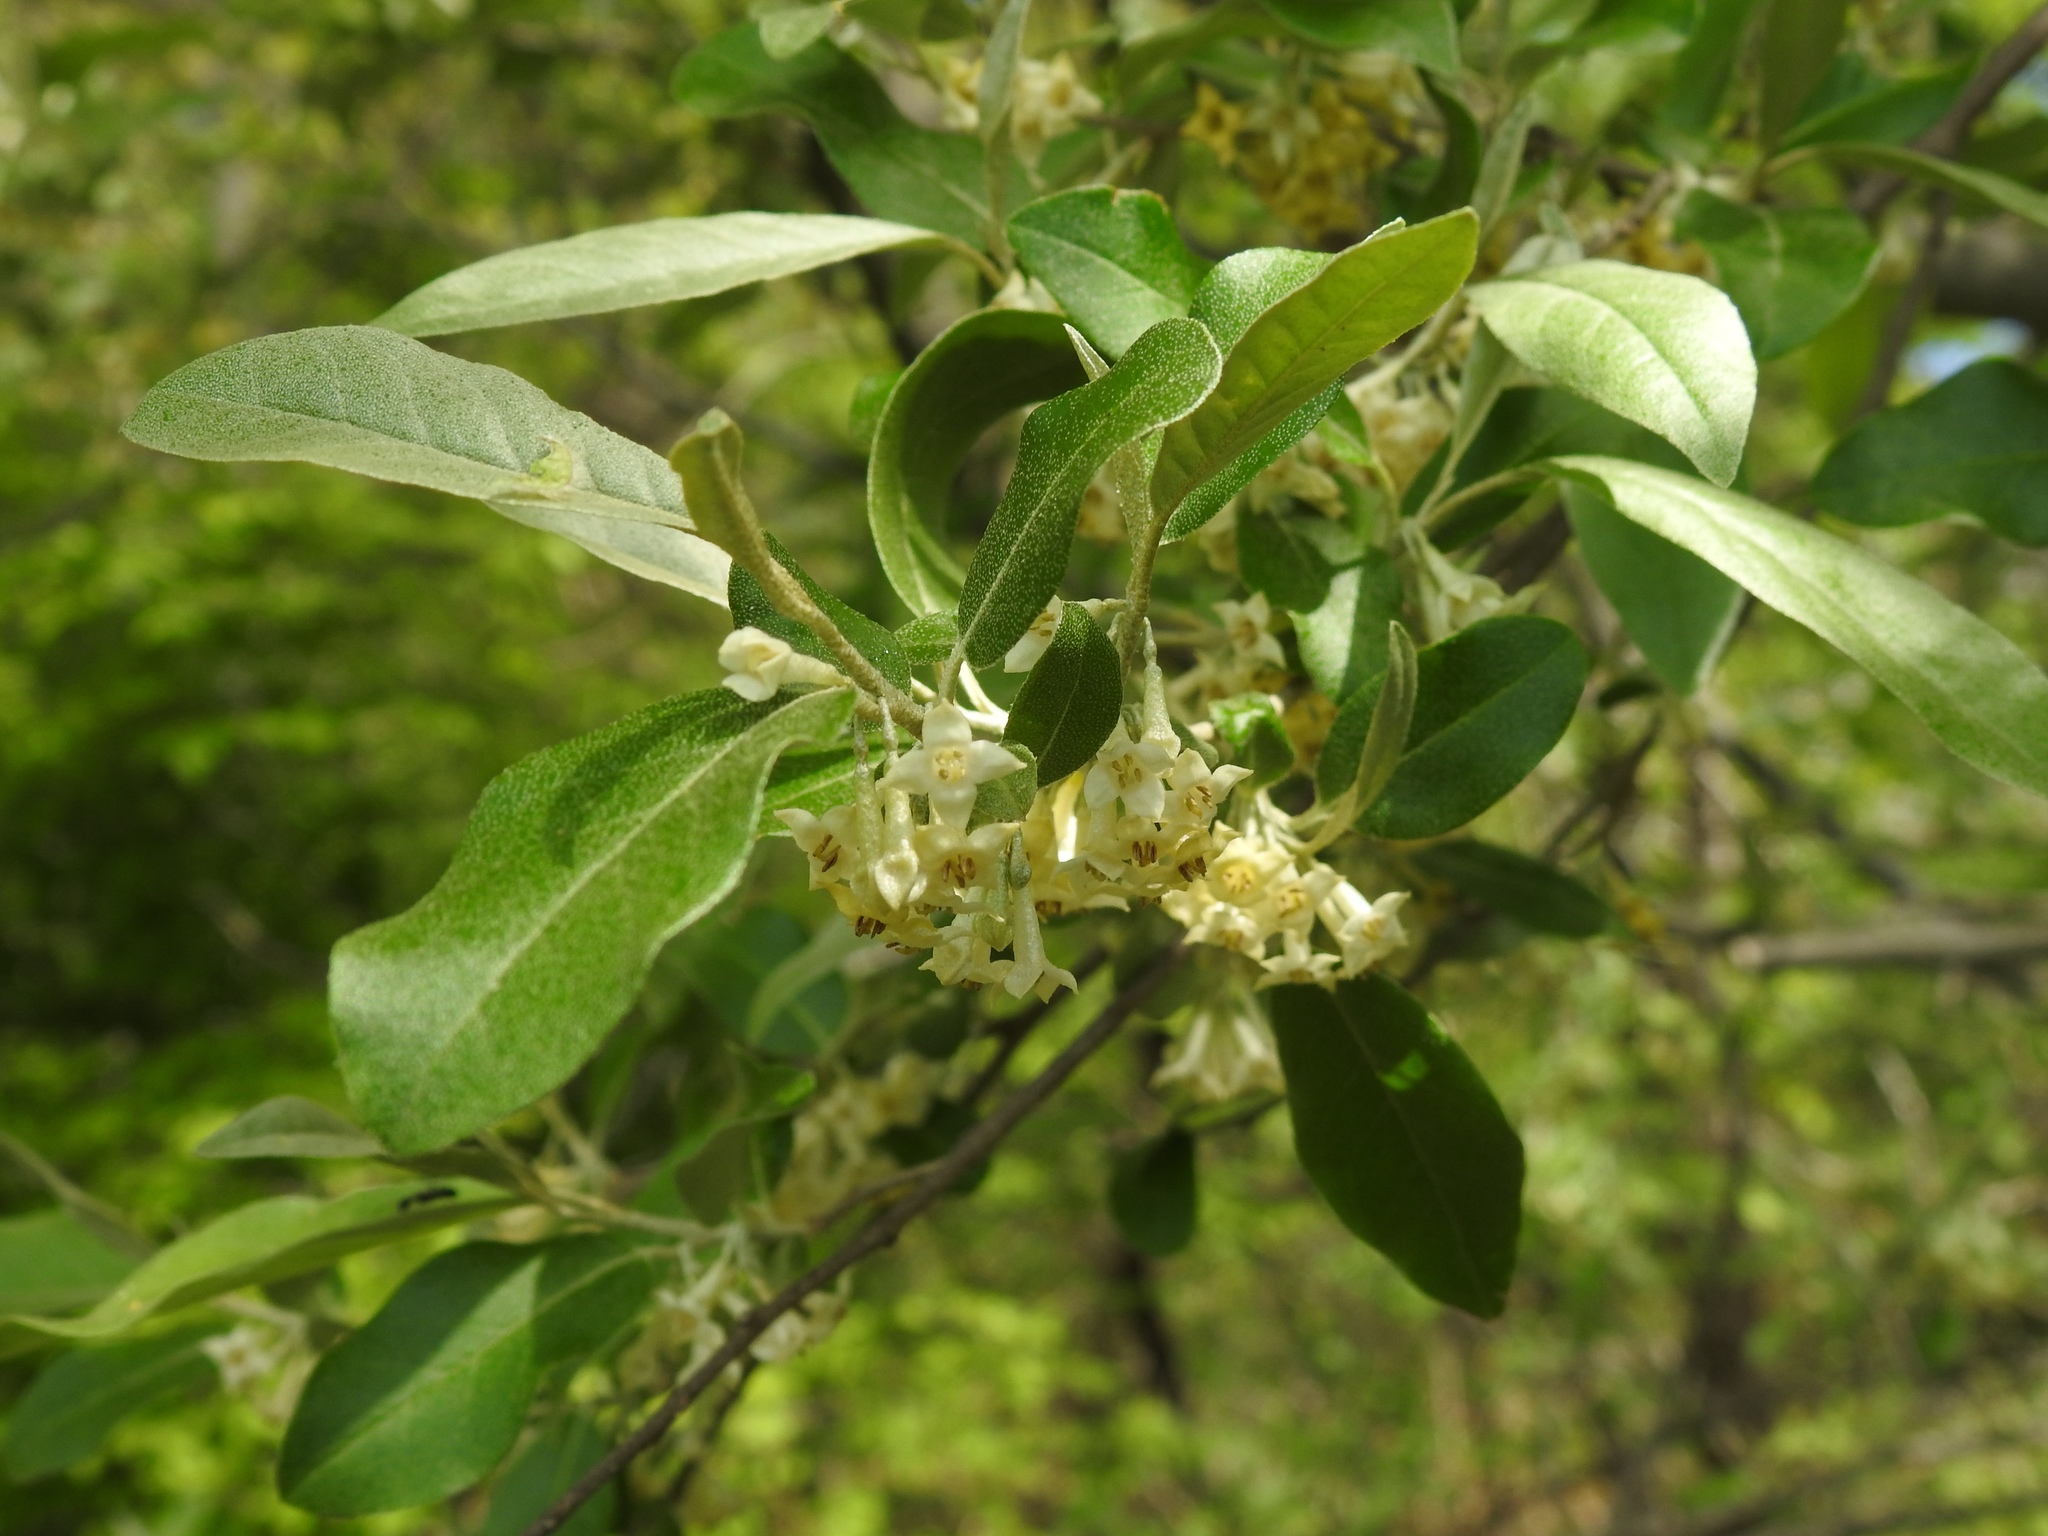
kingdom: Plantae
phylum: Tracheophyta
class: Magnoliopsida
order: Rosales
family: Elaeagnaceae
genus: Elaeagnus
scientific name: Elaeagnus umbellata
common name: Autumn olive
